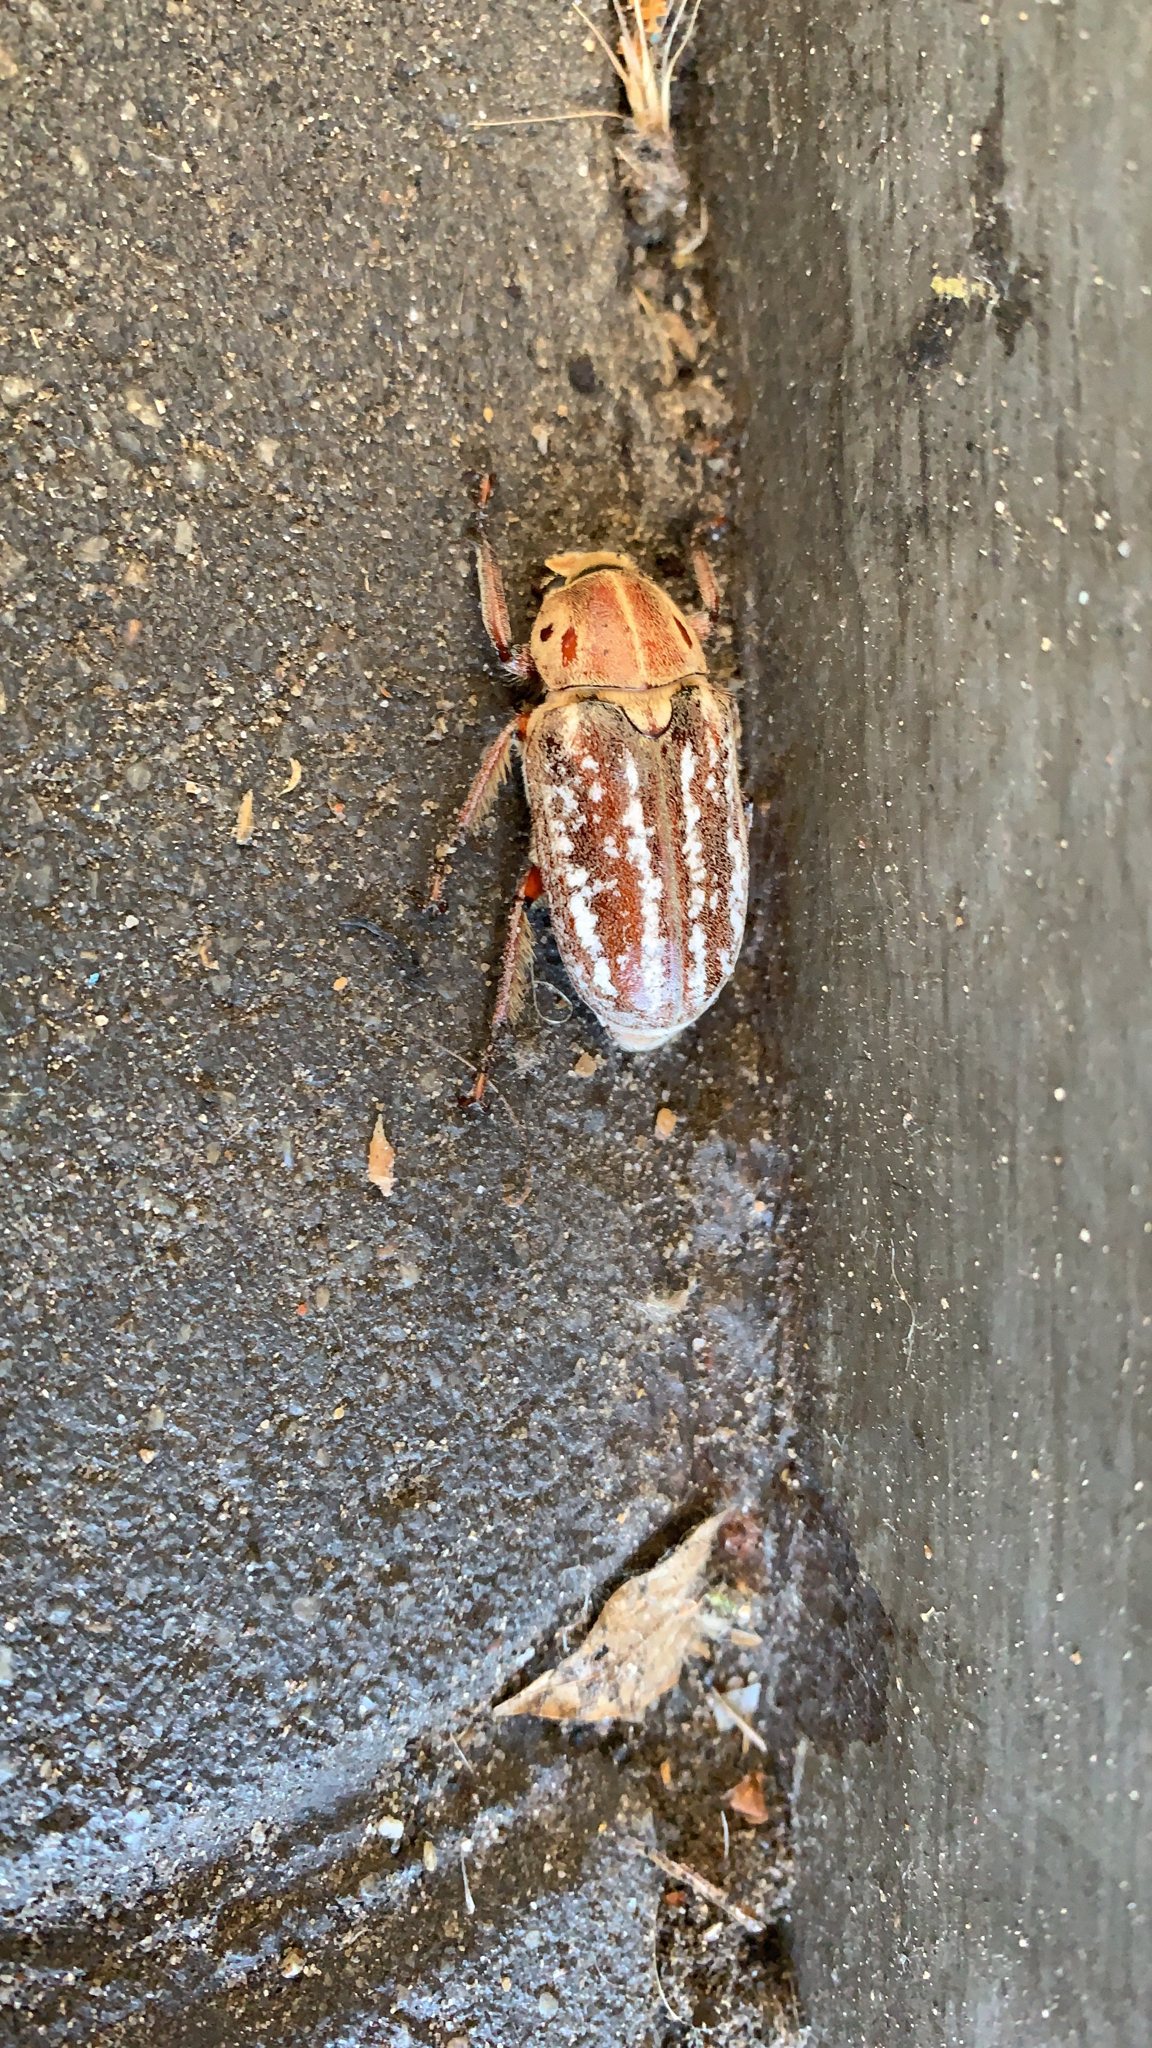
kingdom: Animalia
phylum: Arthropoda
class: Insecta
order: Coleoptera
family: Scarabaeidae
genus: Anoxia
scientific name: Anoxia orientalis
